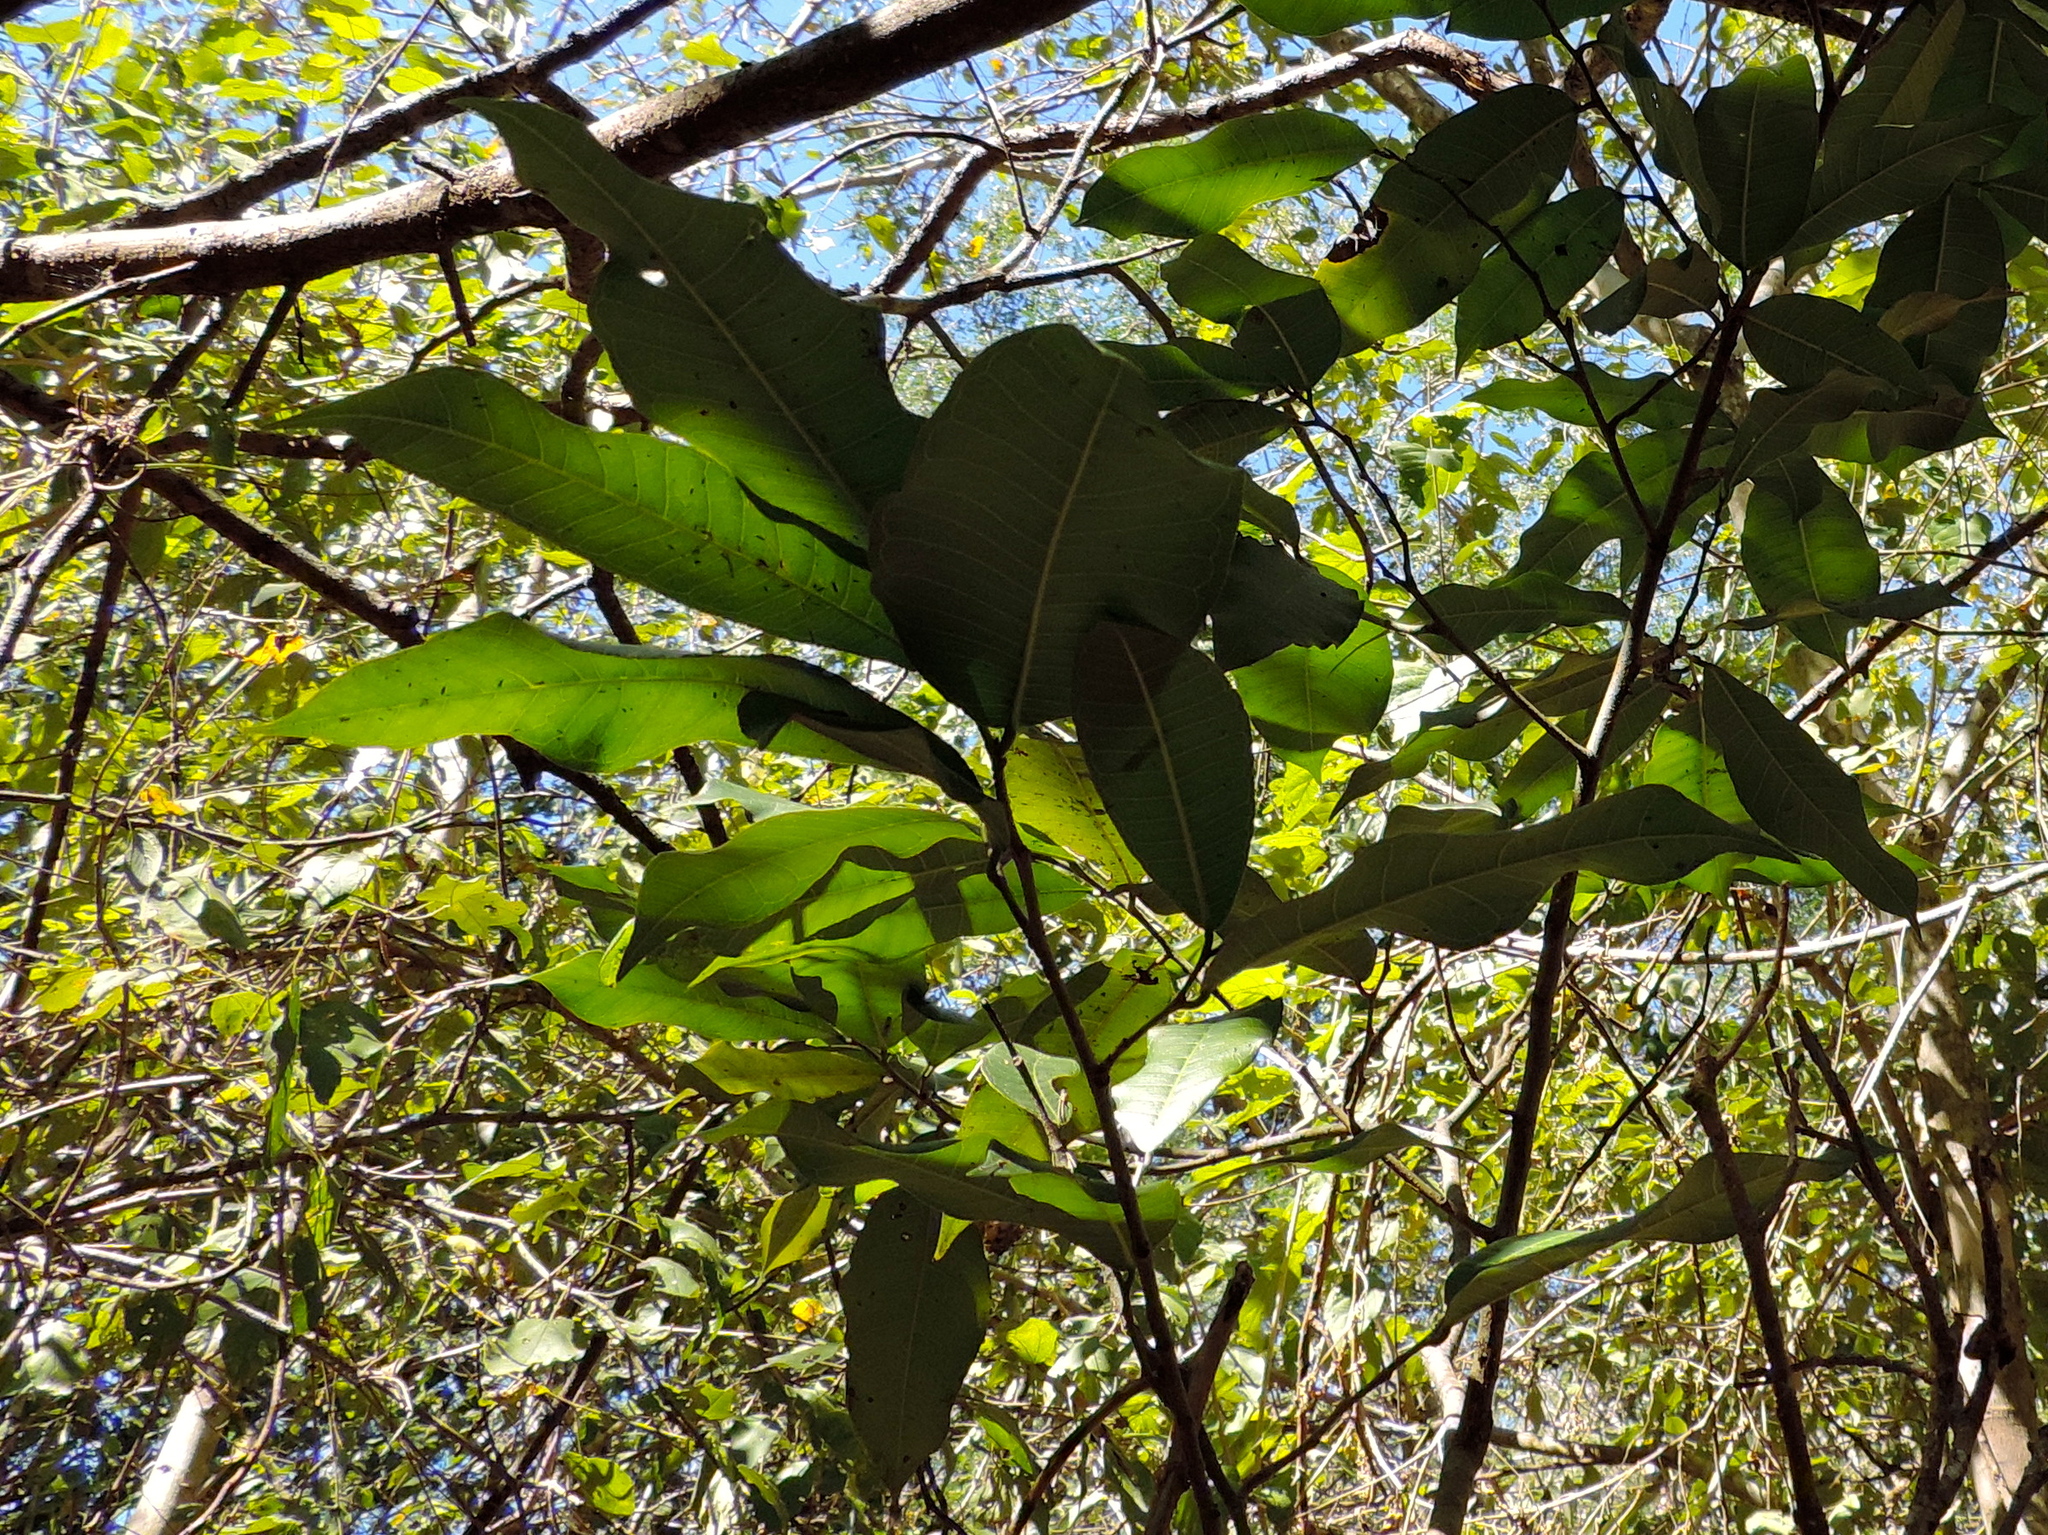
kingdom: Plantae
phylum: Tracheophyta
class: Magnoliopsida
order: Rosales
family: Moraceae
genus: Brosimum
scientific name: Brosimum alicastrum
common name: Breadnut
